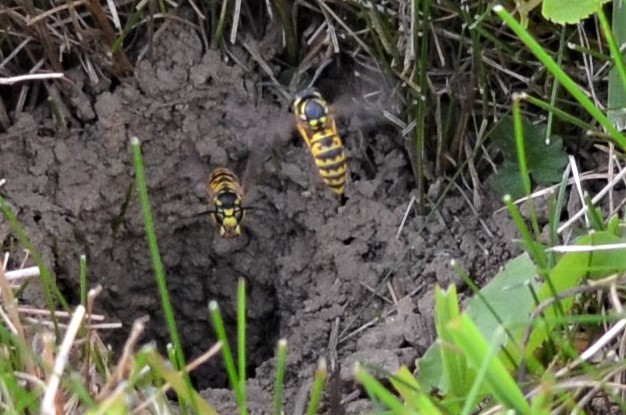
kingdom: Animalia
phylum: Arthropoda
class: Insecta
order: Hymenoptera
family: Vespidae
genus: Vespula
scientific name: Vespula germanica
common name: German wasp
